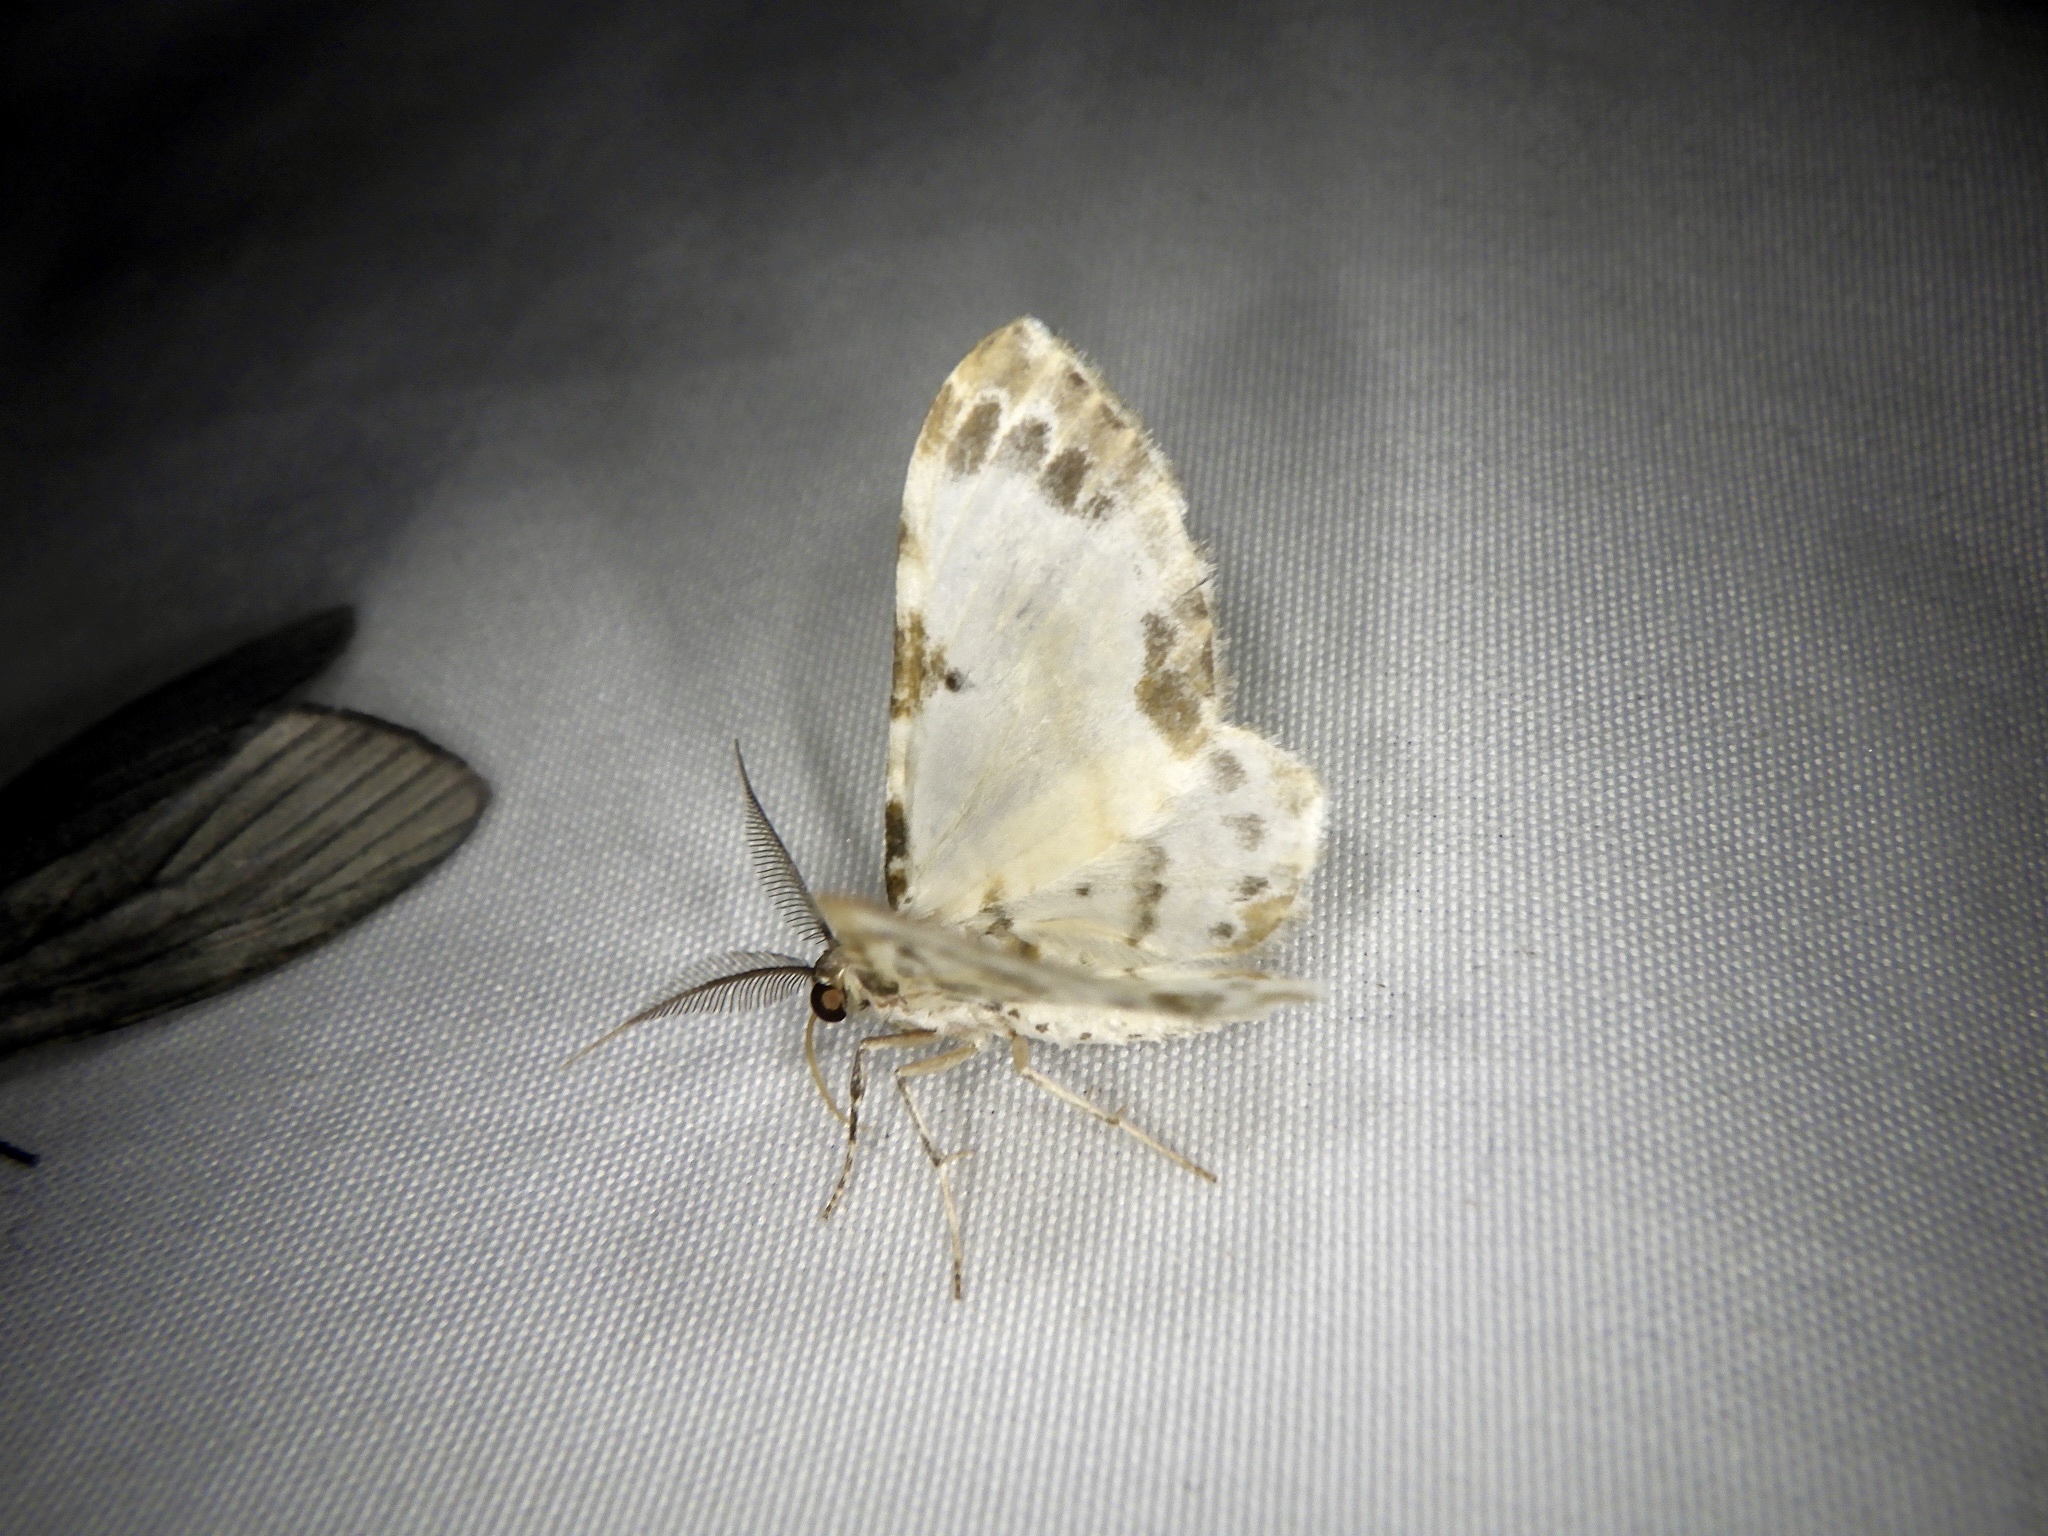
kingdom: Animalia
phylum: Arthropoda
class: Insecta
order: Lepidoptera
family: Geometridae
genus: Tyloptera
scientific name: Tyloptera bella
